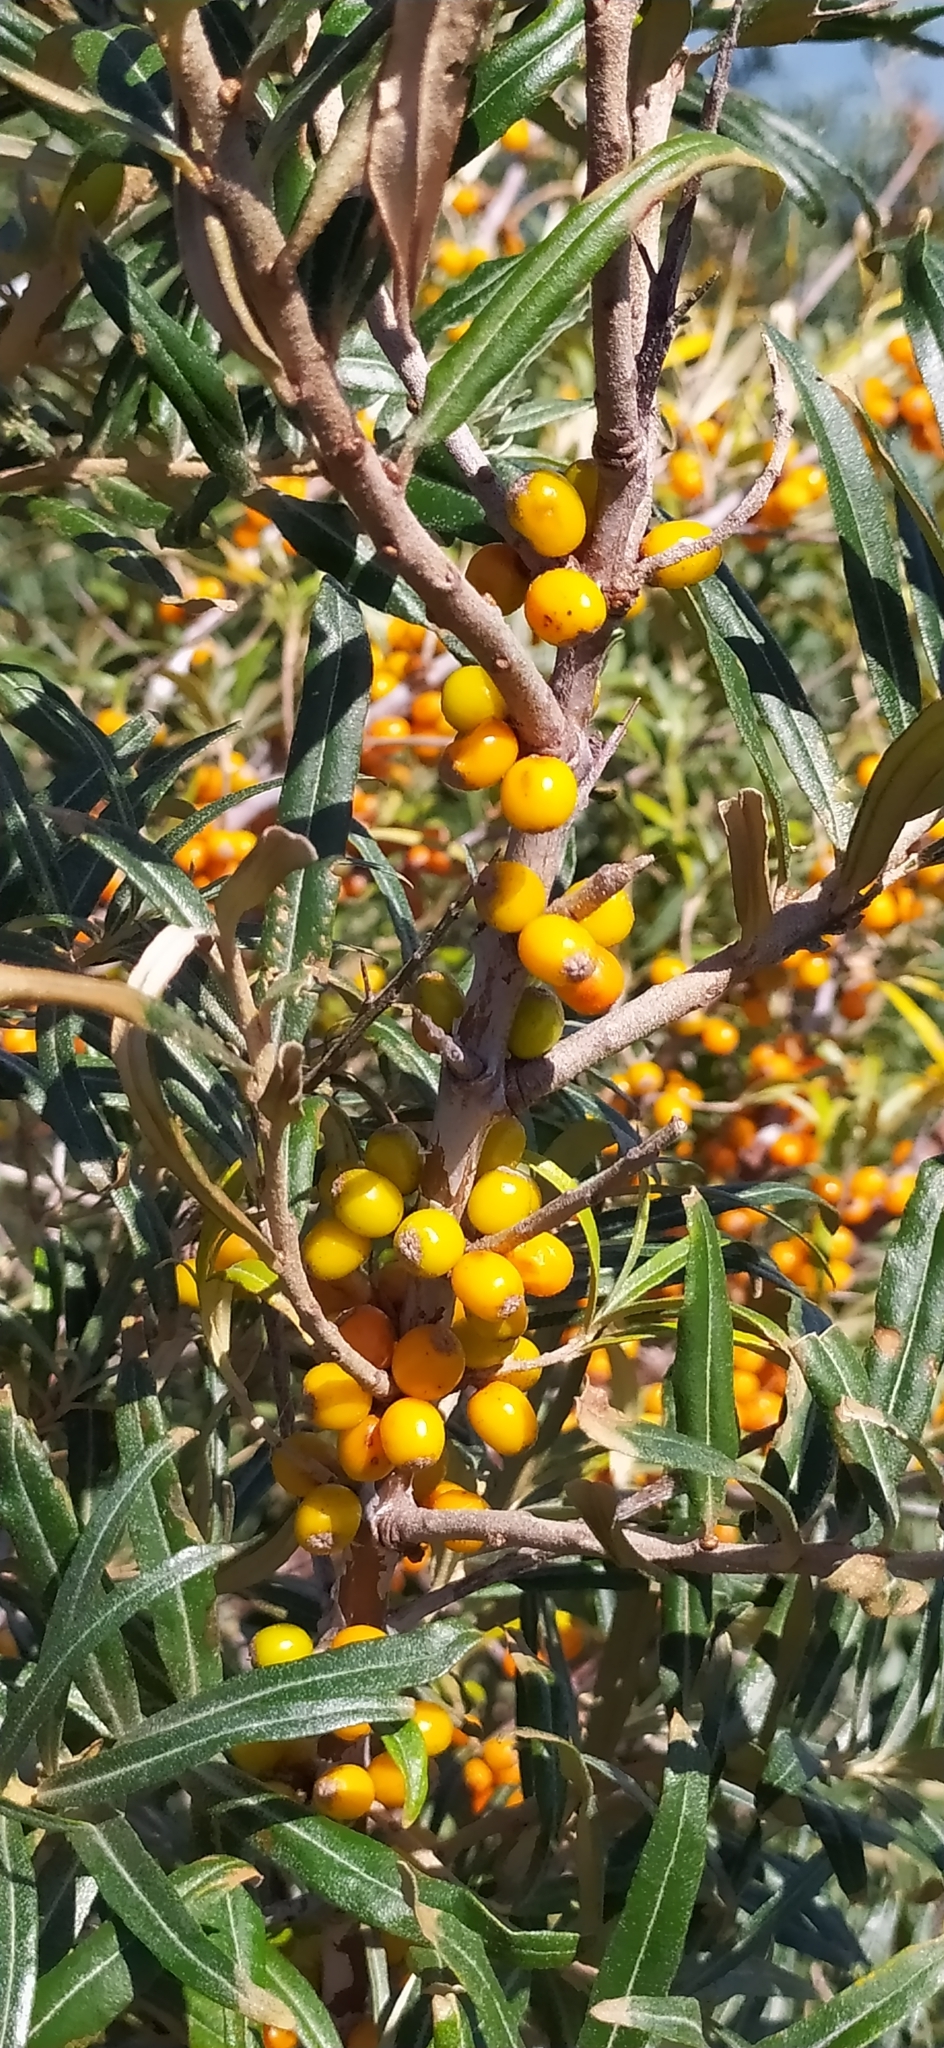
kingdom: Plantae
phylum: Tracheophyta
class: Magnoliopsida
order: Rosales
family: Elaeagnaceae
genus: Hippophae
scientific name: Hippophae rhamnoides
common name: Sea-buckthorn
